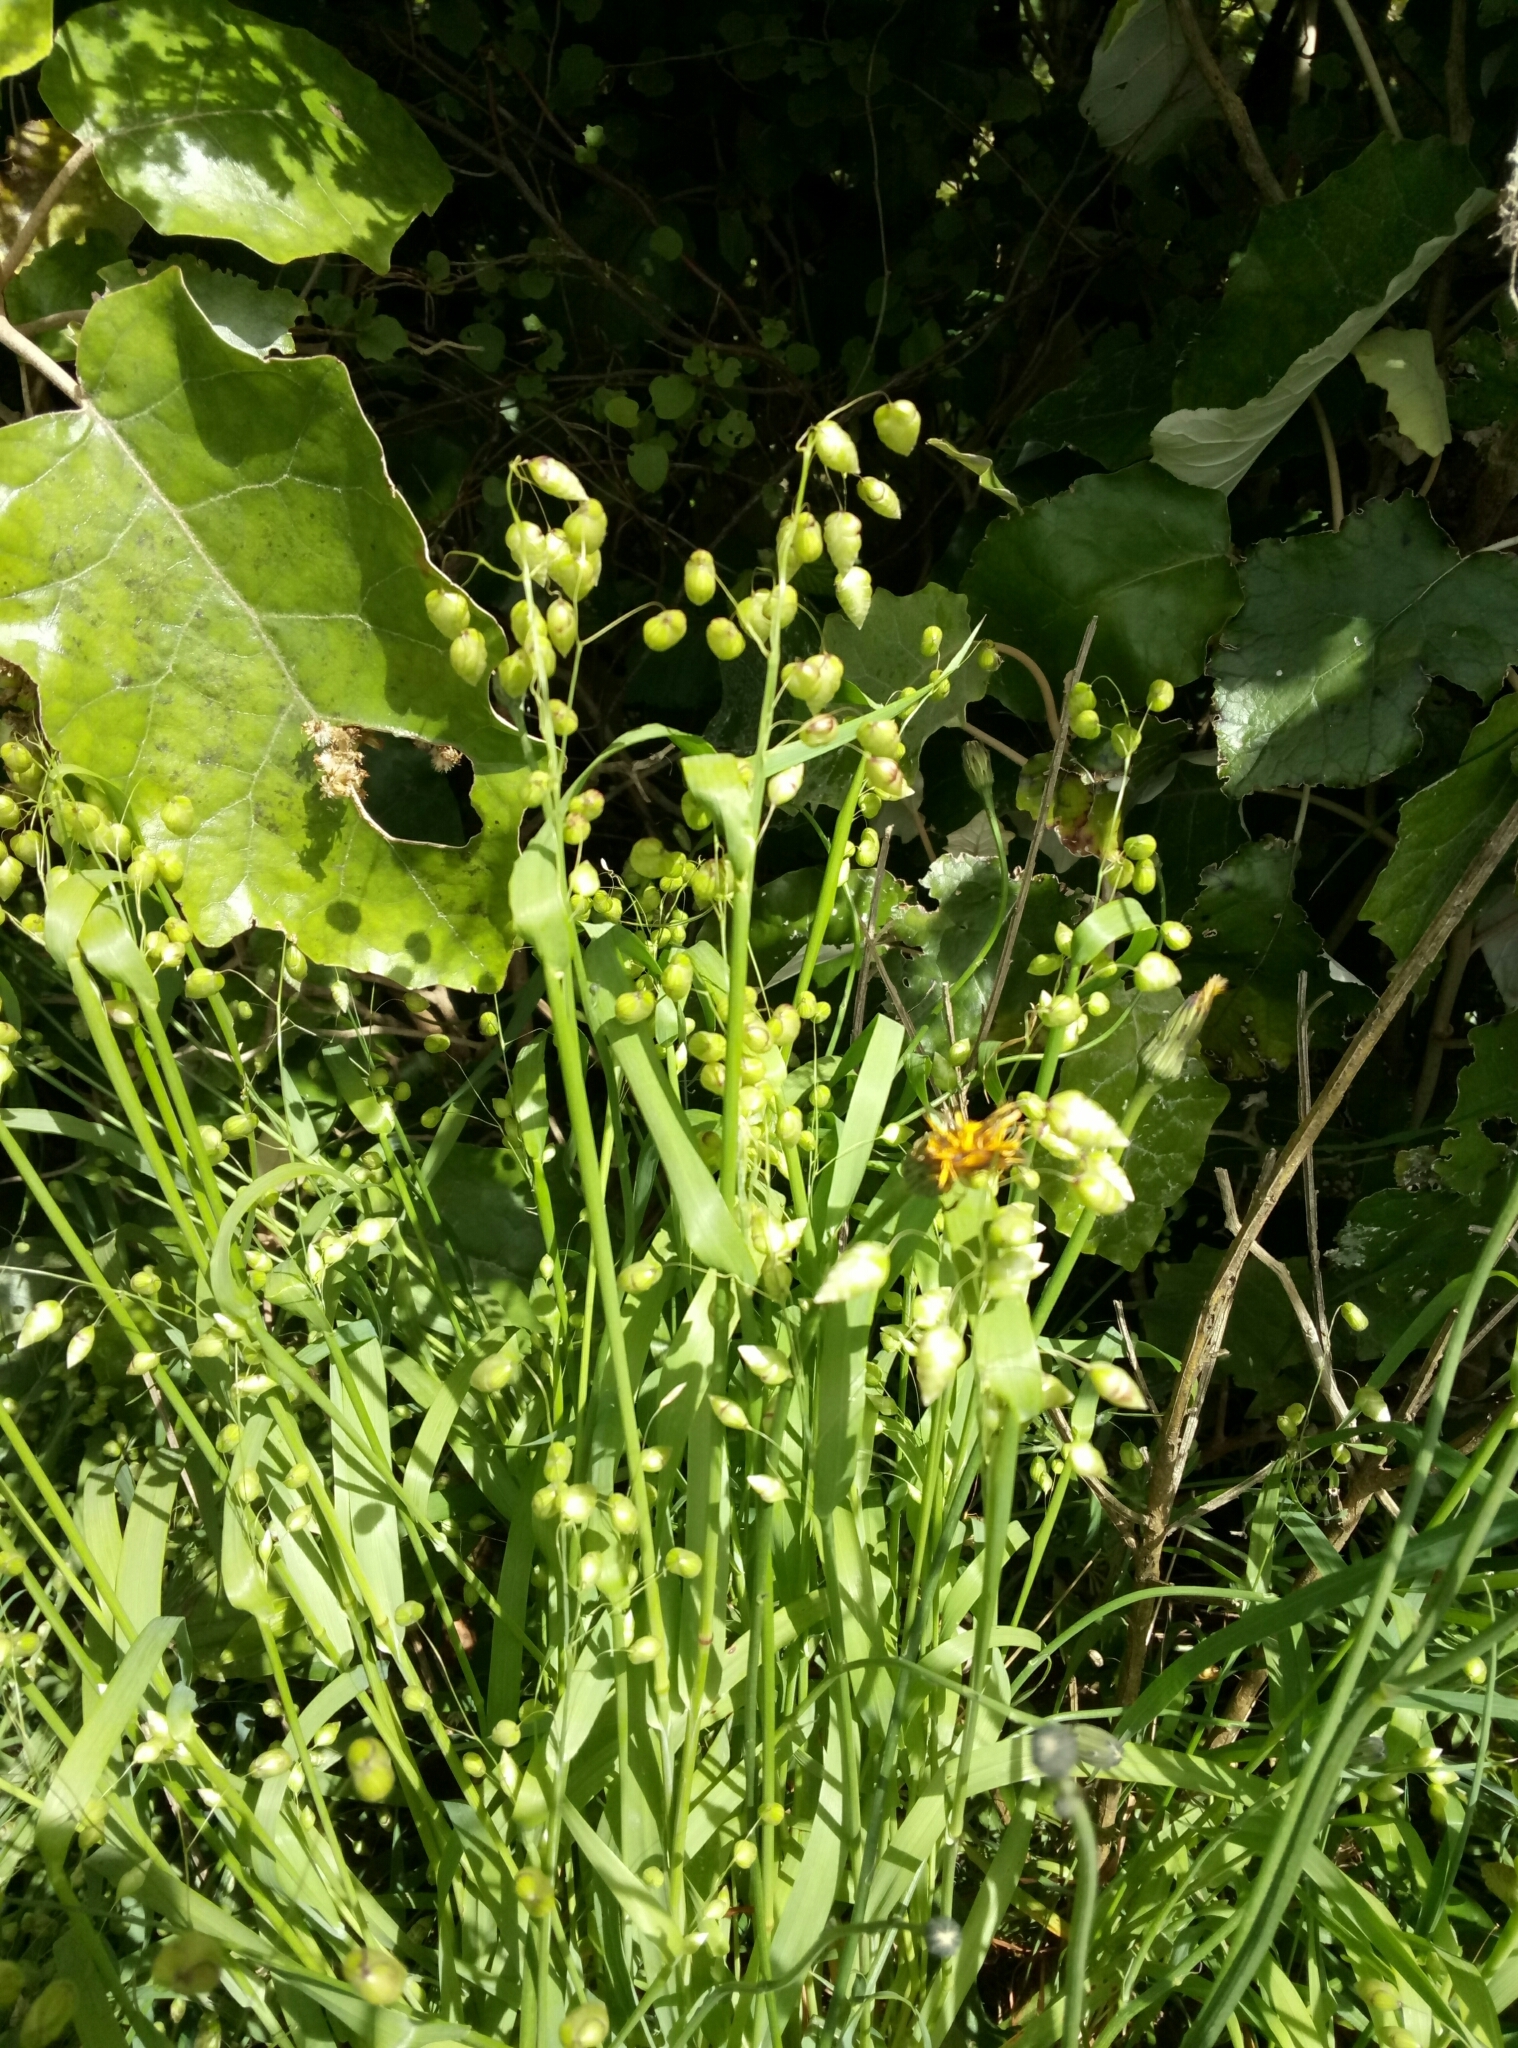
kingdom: Plantae
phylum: Tracheophyta
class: Liliopsida
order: Poales
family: Poaceae
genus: Briza
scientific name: Briza minor
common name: Lesser quaking-grass
